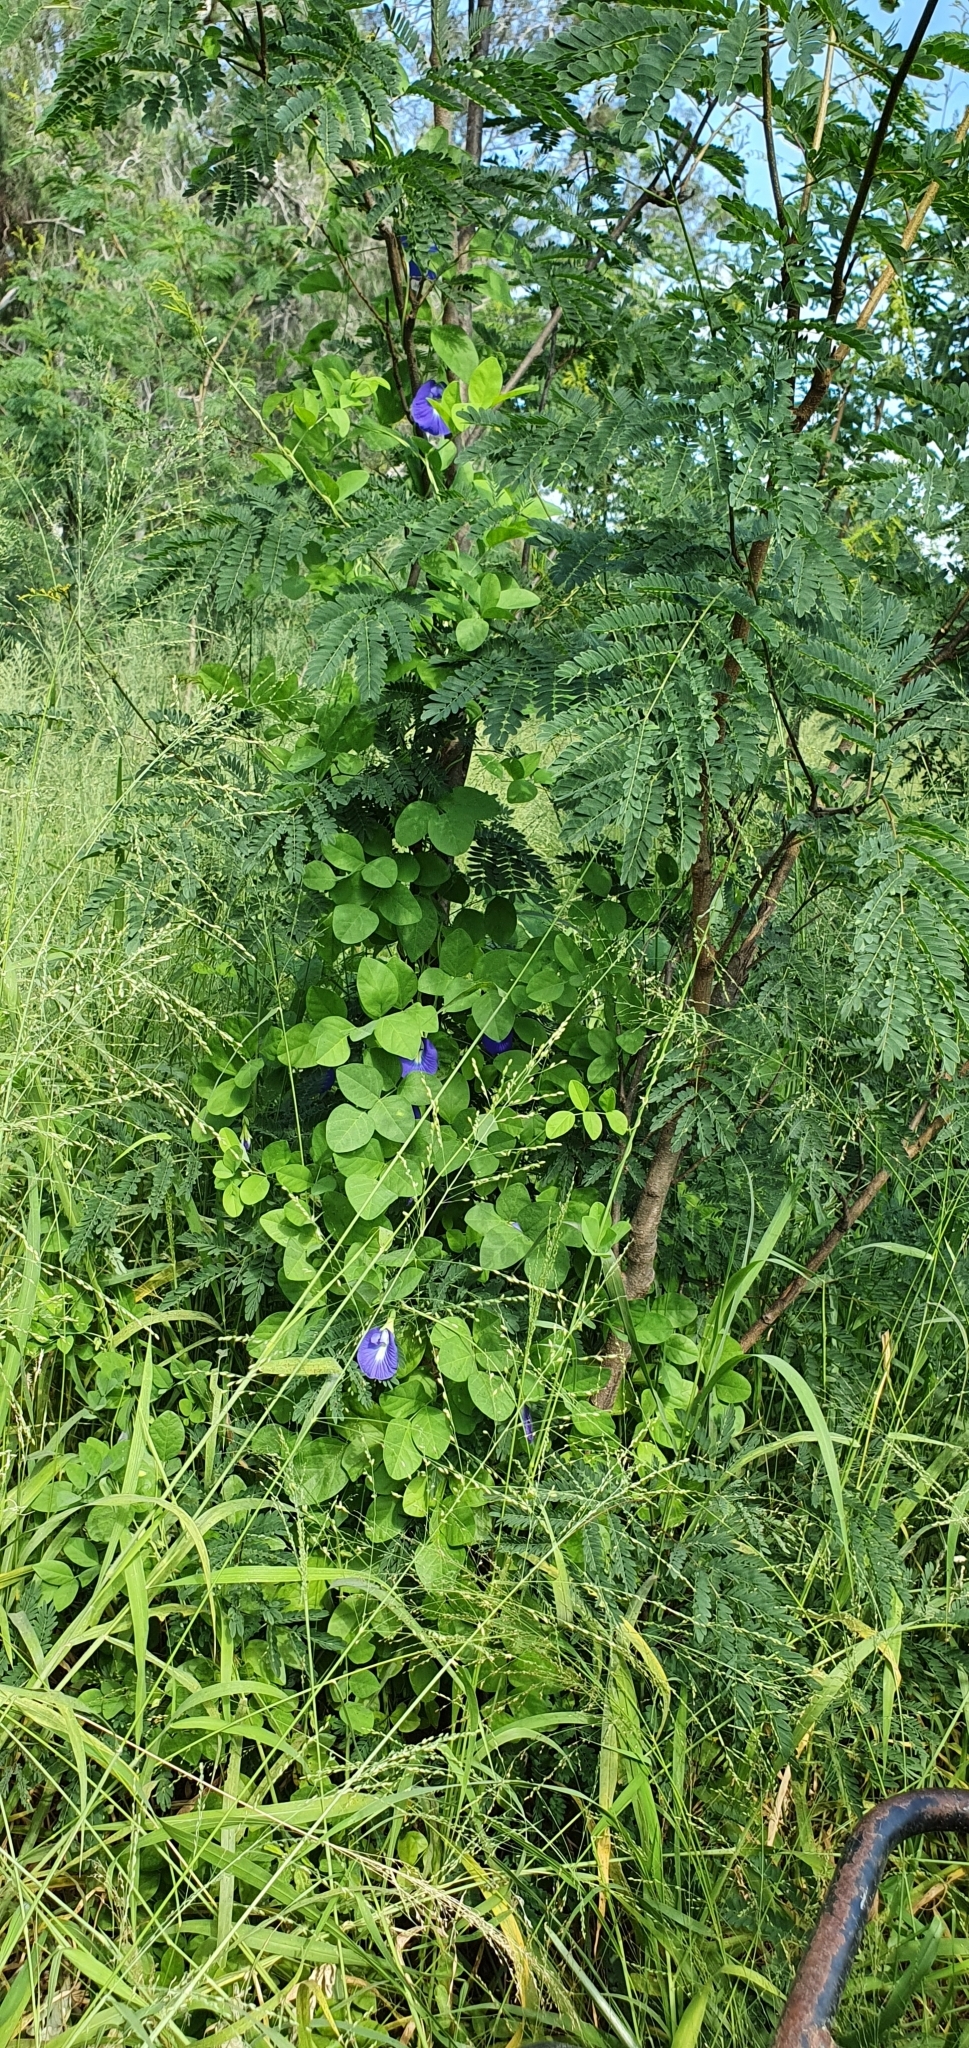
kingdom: Plantae
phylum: Tracheophyta
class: Magnoliopsida
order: Fabales
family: Fabaceae
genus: Clitoria
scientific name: Clitoria ternatea
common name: Asian pigeonwings
